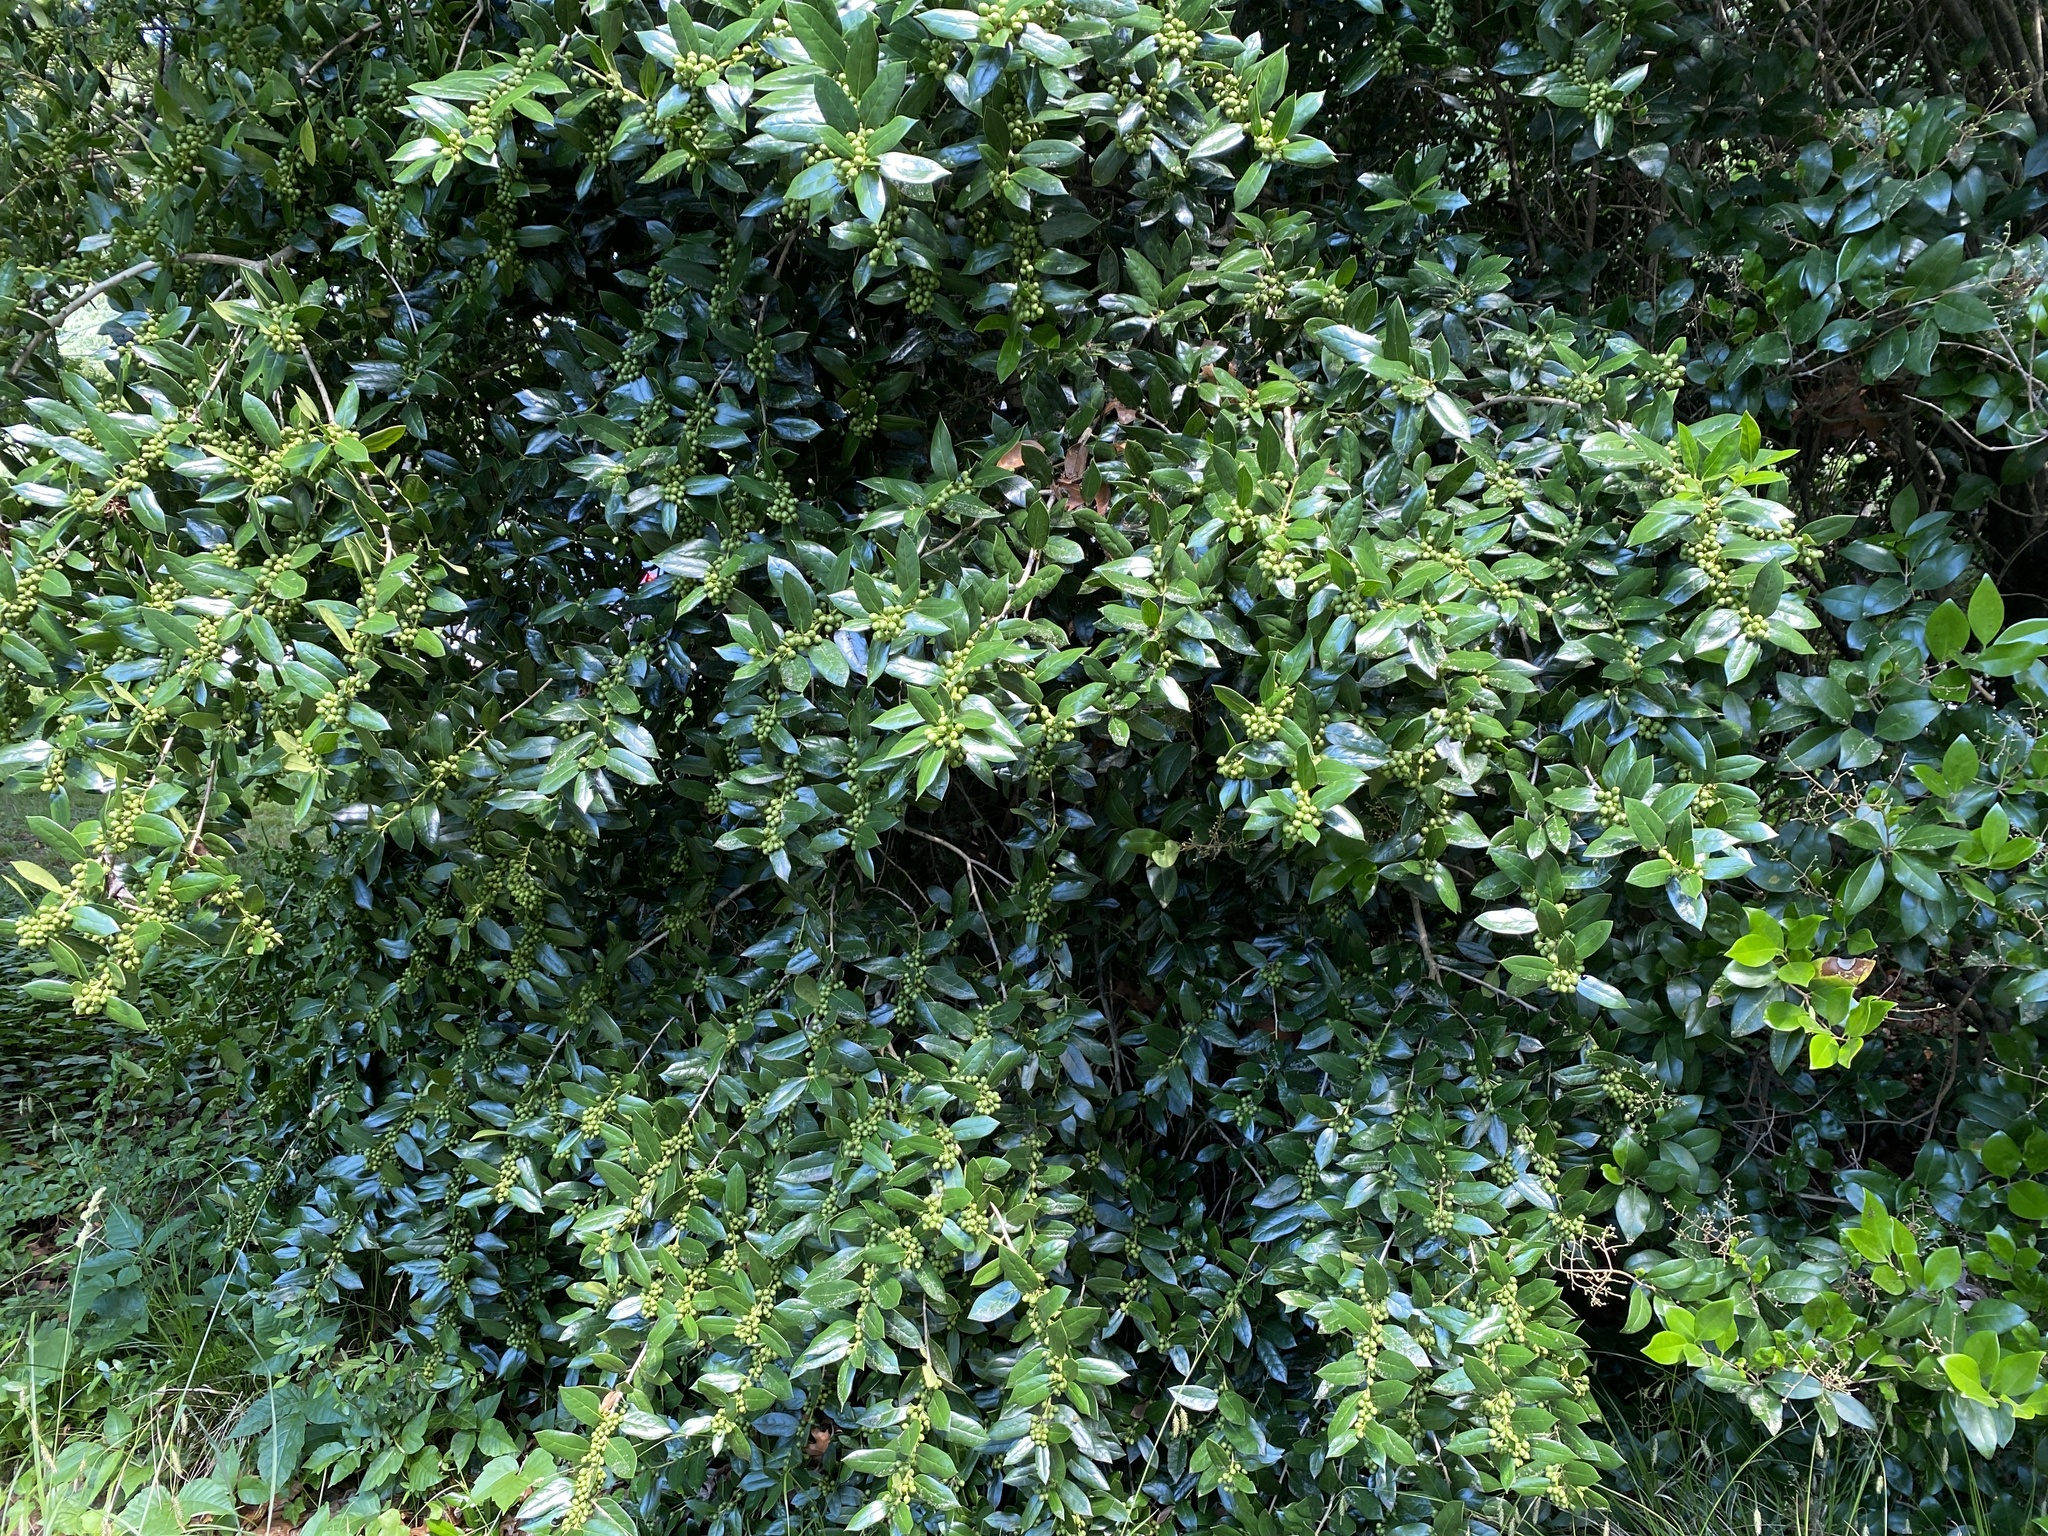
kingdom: Plantae
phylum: Tracheophyta
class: Magnoliopsida
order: Aquifoliales
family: Aquifoliaceae
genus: Ilex
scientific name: Ilex cornuta
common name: Chinese holly
